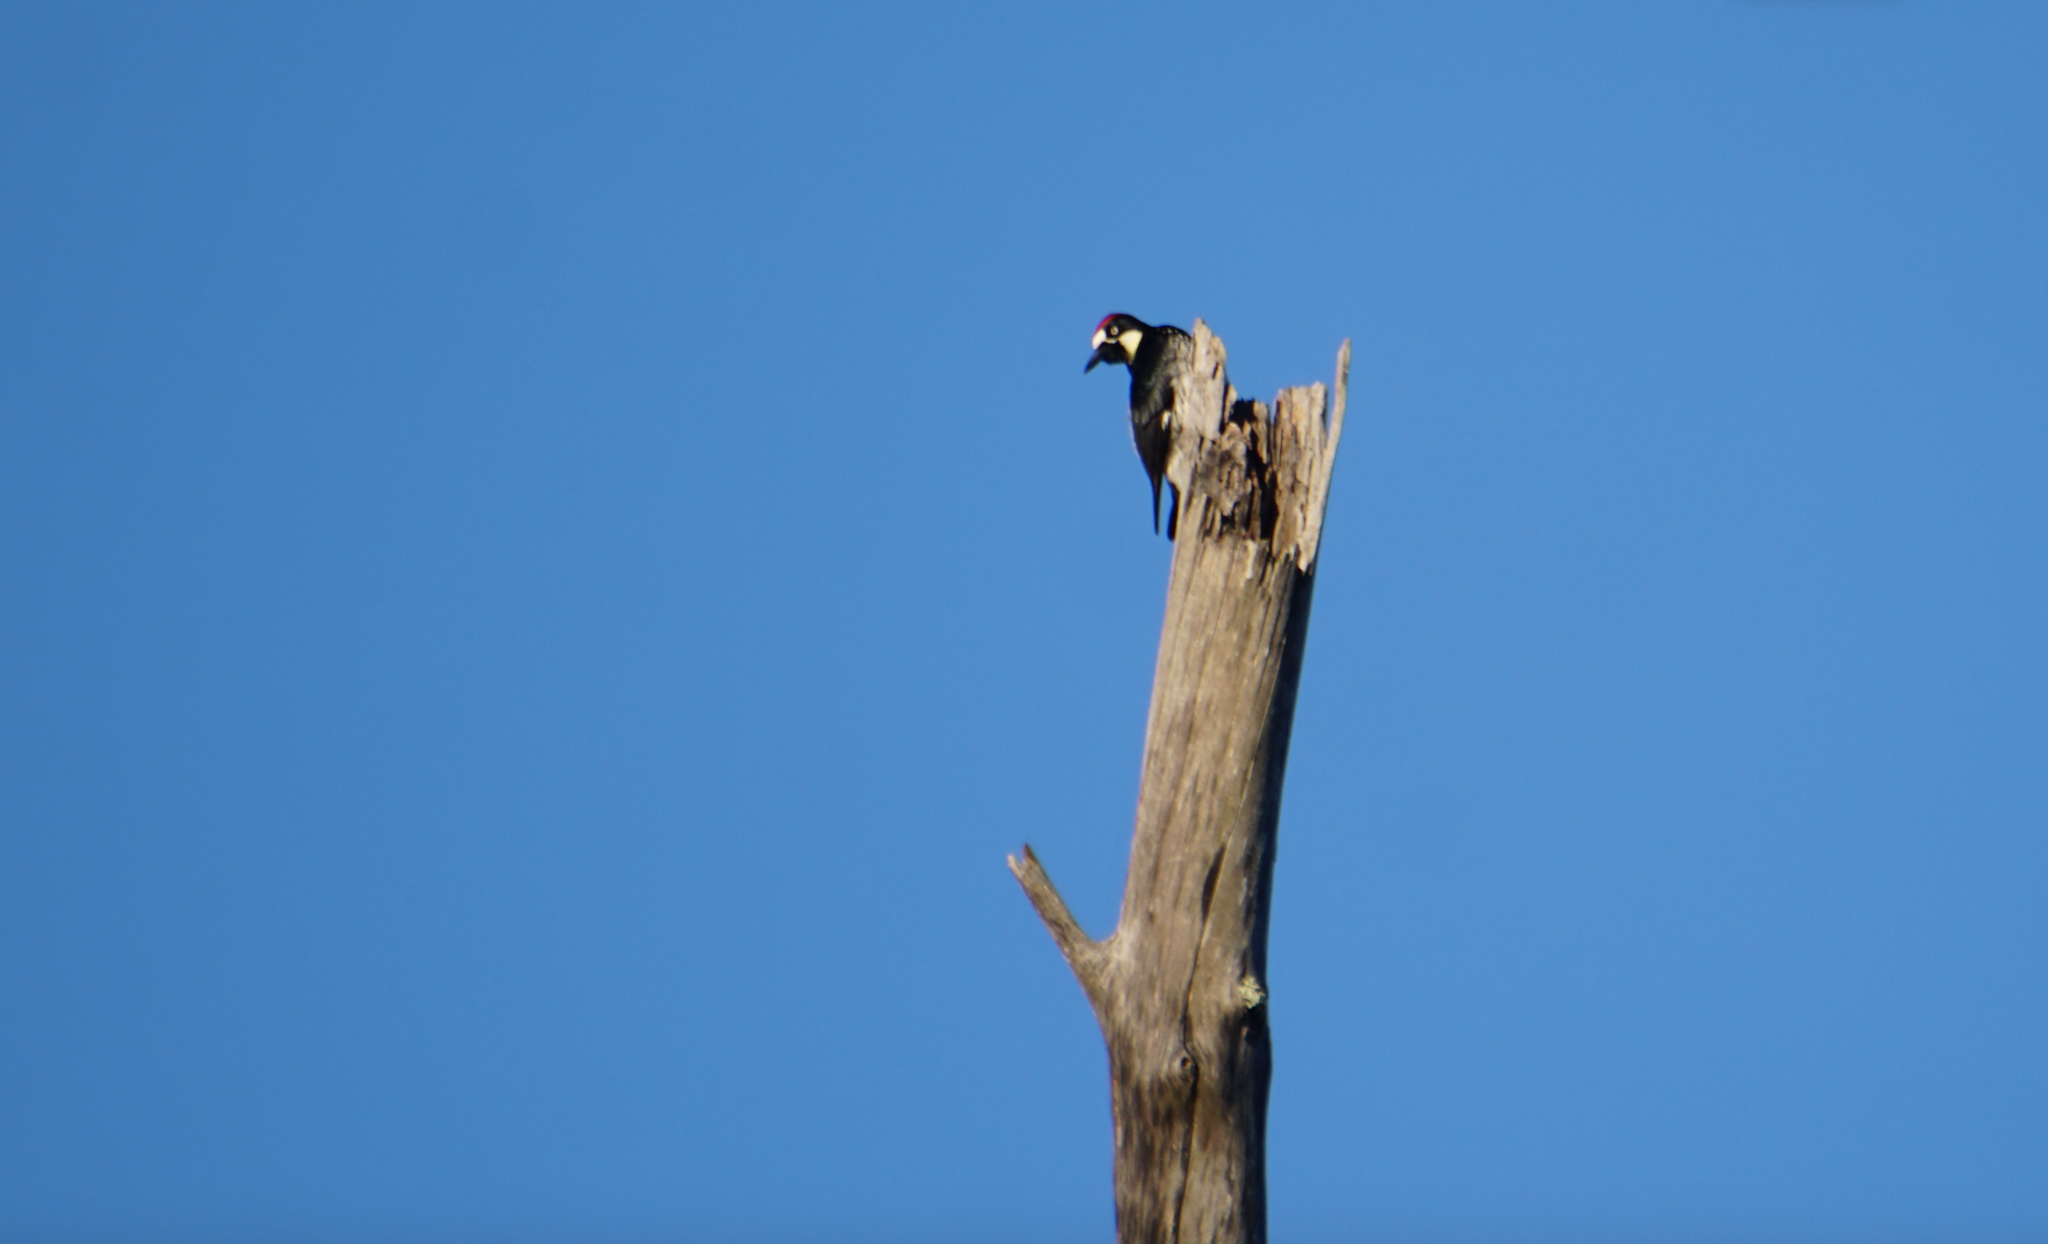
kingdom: Animalia
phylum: Chordata
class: Aves
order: Piciformes
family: Picidae
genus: Melanerpes
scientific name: Melanerpes formicivorus
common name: Acorn woodpecker
